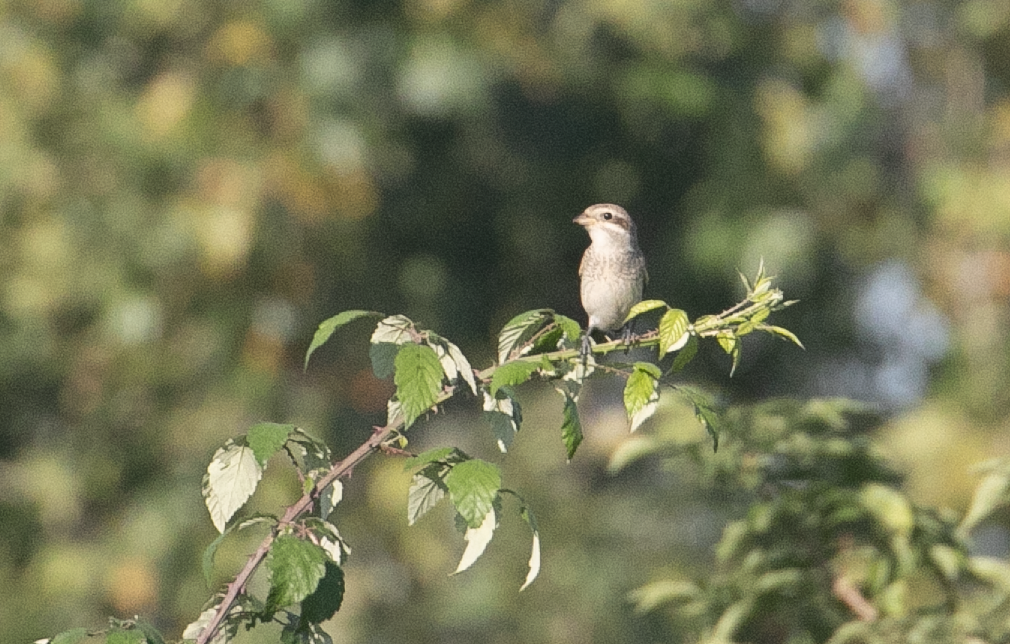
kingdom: Animalia
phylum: Chordata
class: Aves
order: Passeriformes
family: Laniidae
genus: Lanius
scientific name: Lanius collurio
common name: Red-backed shrike
